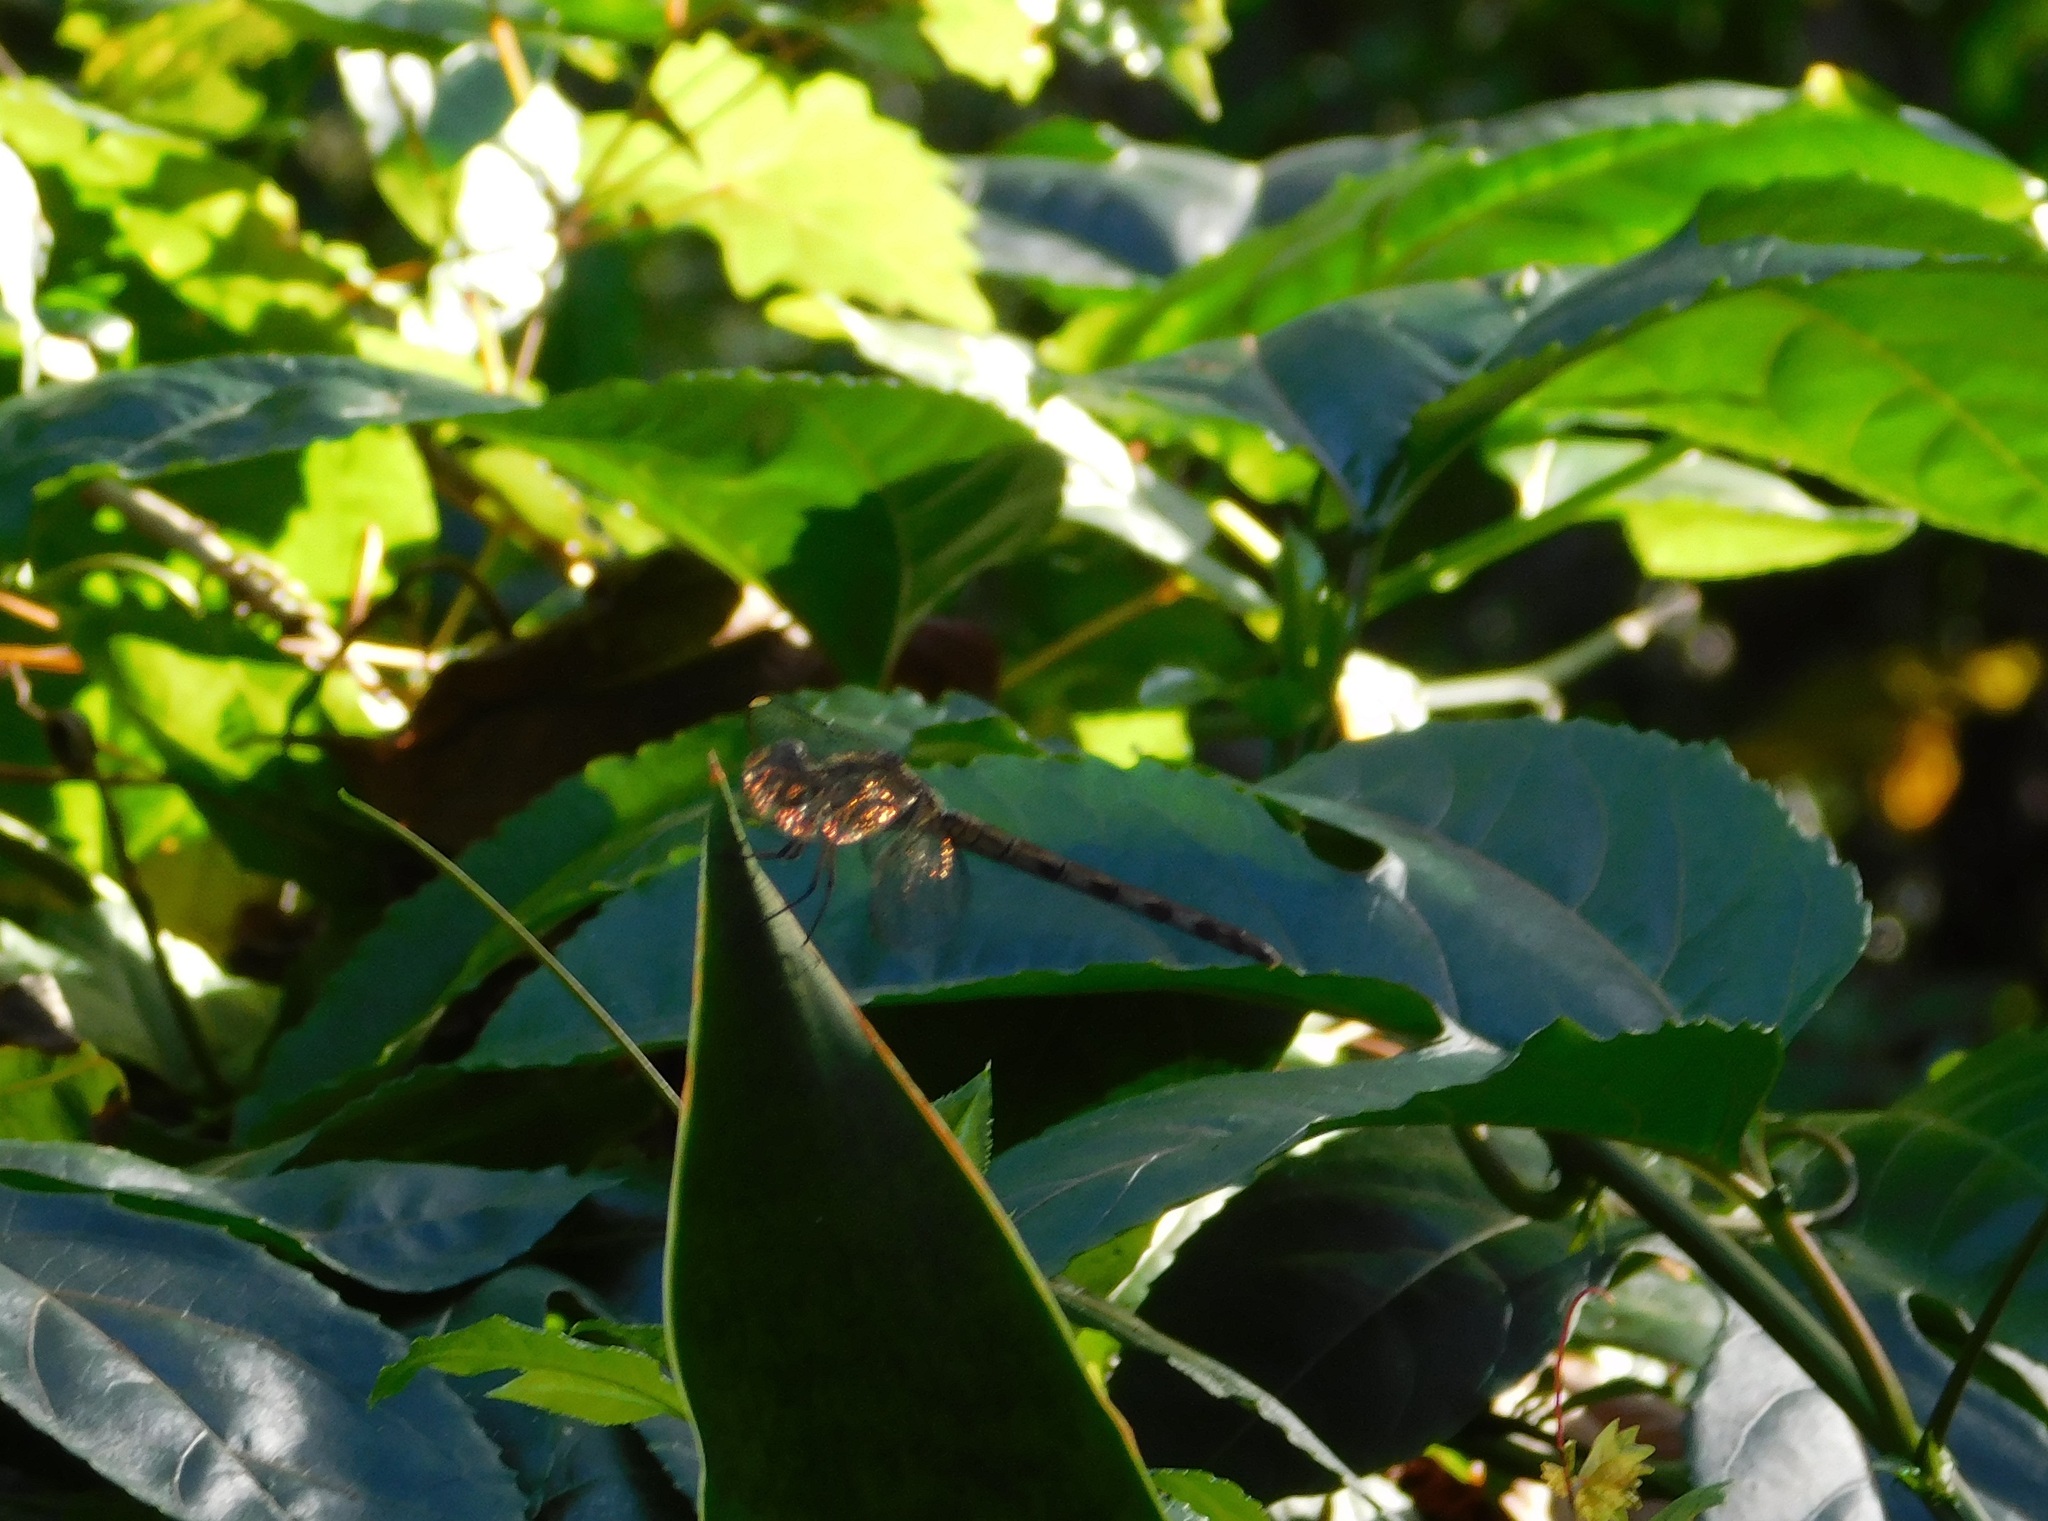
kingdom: Animalia
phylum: Arthropoda
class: Insecta
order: Odonata
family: Libellulidae
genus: Erythrodiplax
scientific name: Erythrodiplax umbrata
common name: Band-winged dragonlet
